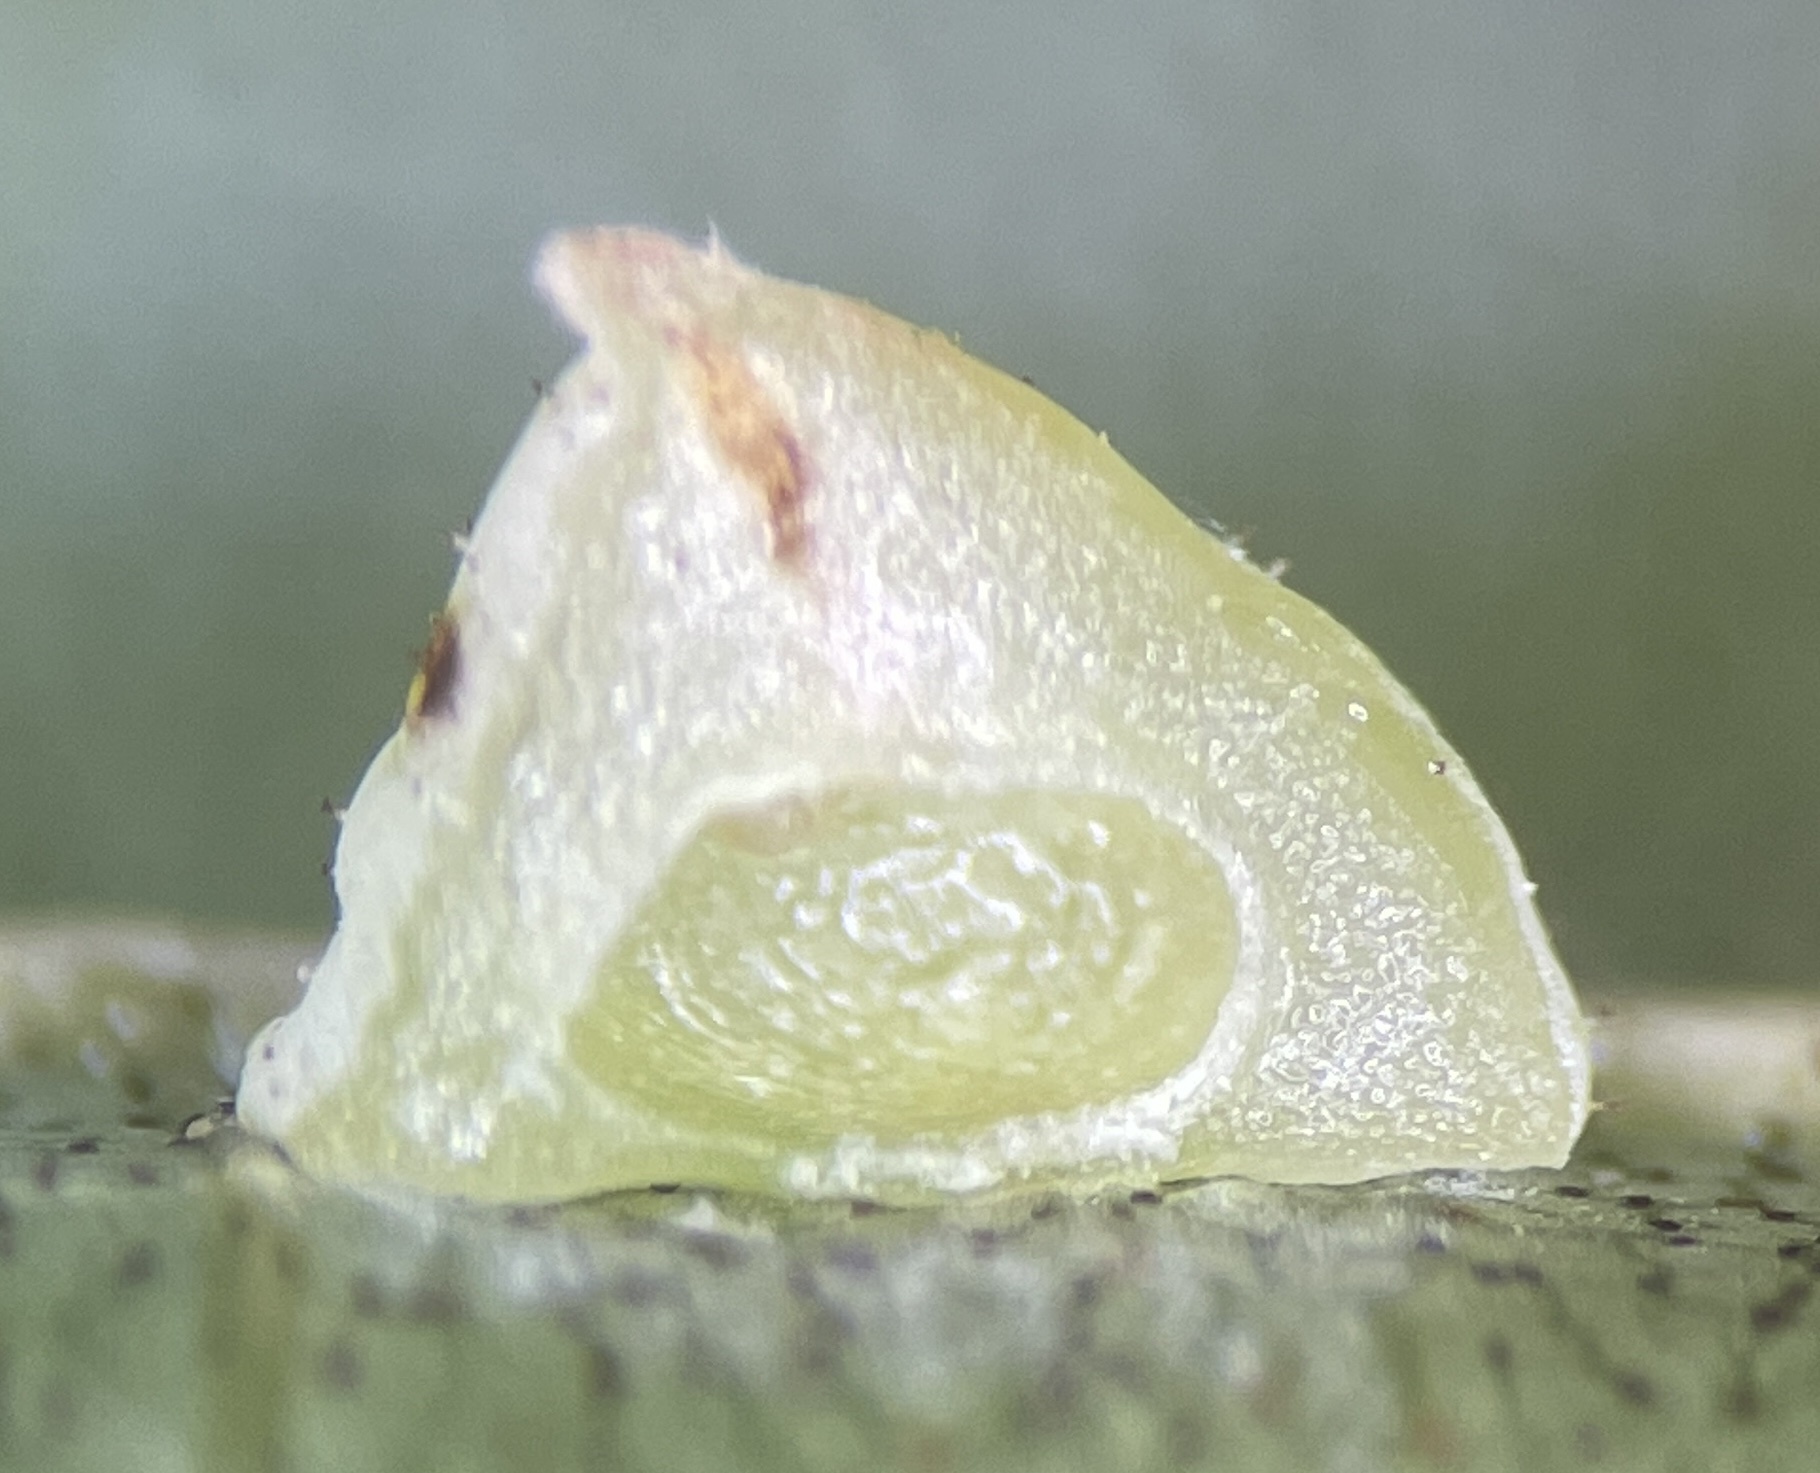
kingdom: Animalia
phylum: Arthropoda
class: Insecta
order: Diptera
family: Cecidomyiidae
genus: Caryomyia
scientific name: Caryomyia sanguinolenta
